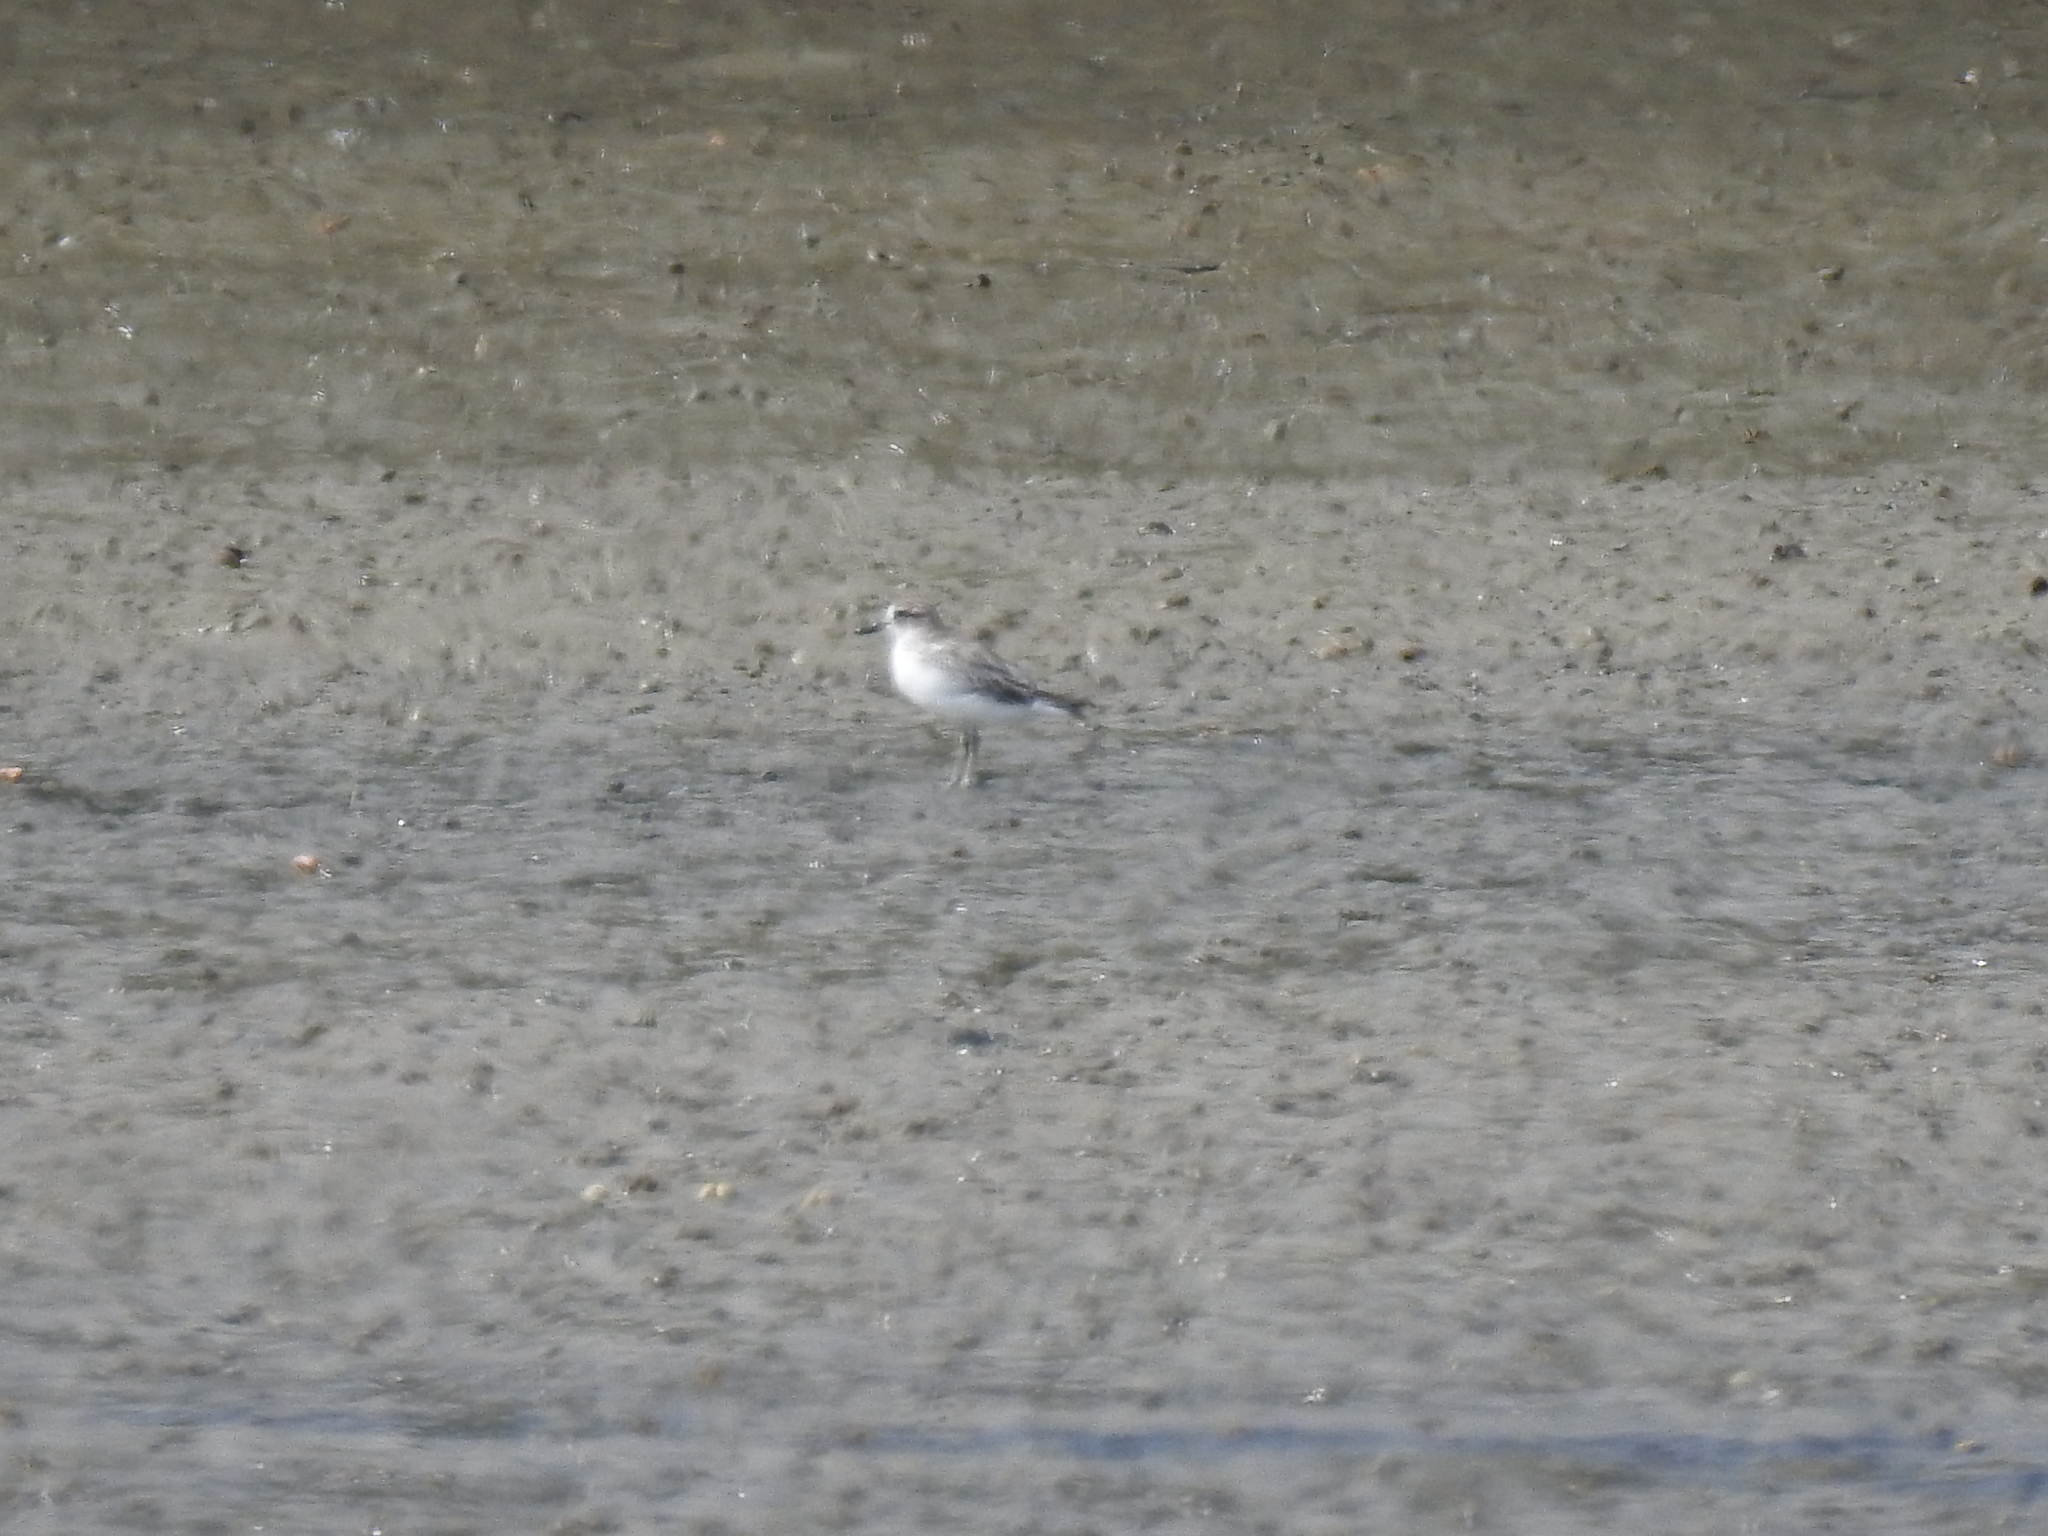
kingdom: Animalia
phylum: Chordata
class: Aves
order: Charadriiformes
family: Charadriidae
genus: Anarhynchus
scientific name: Anarhynchus
